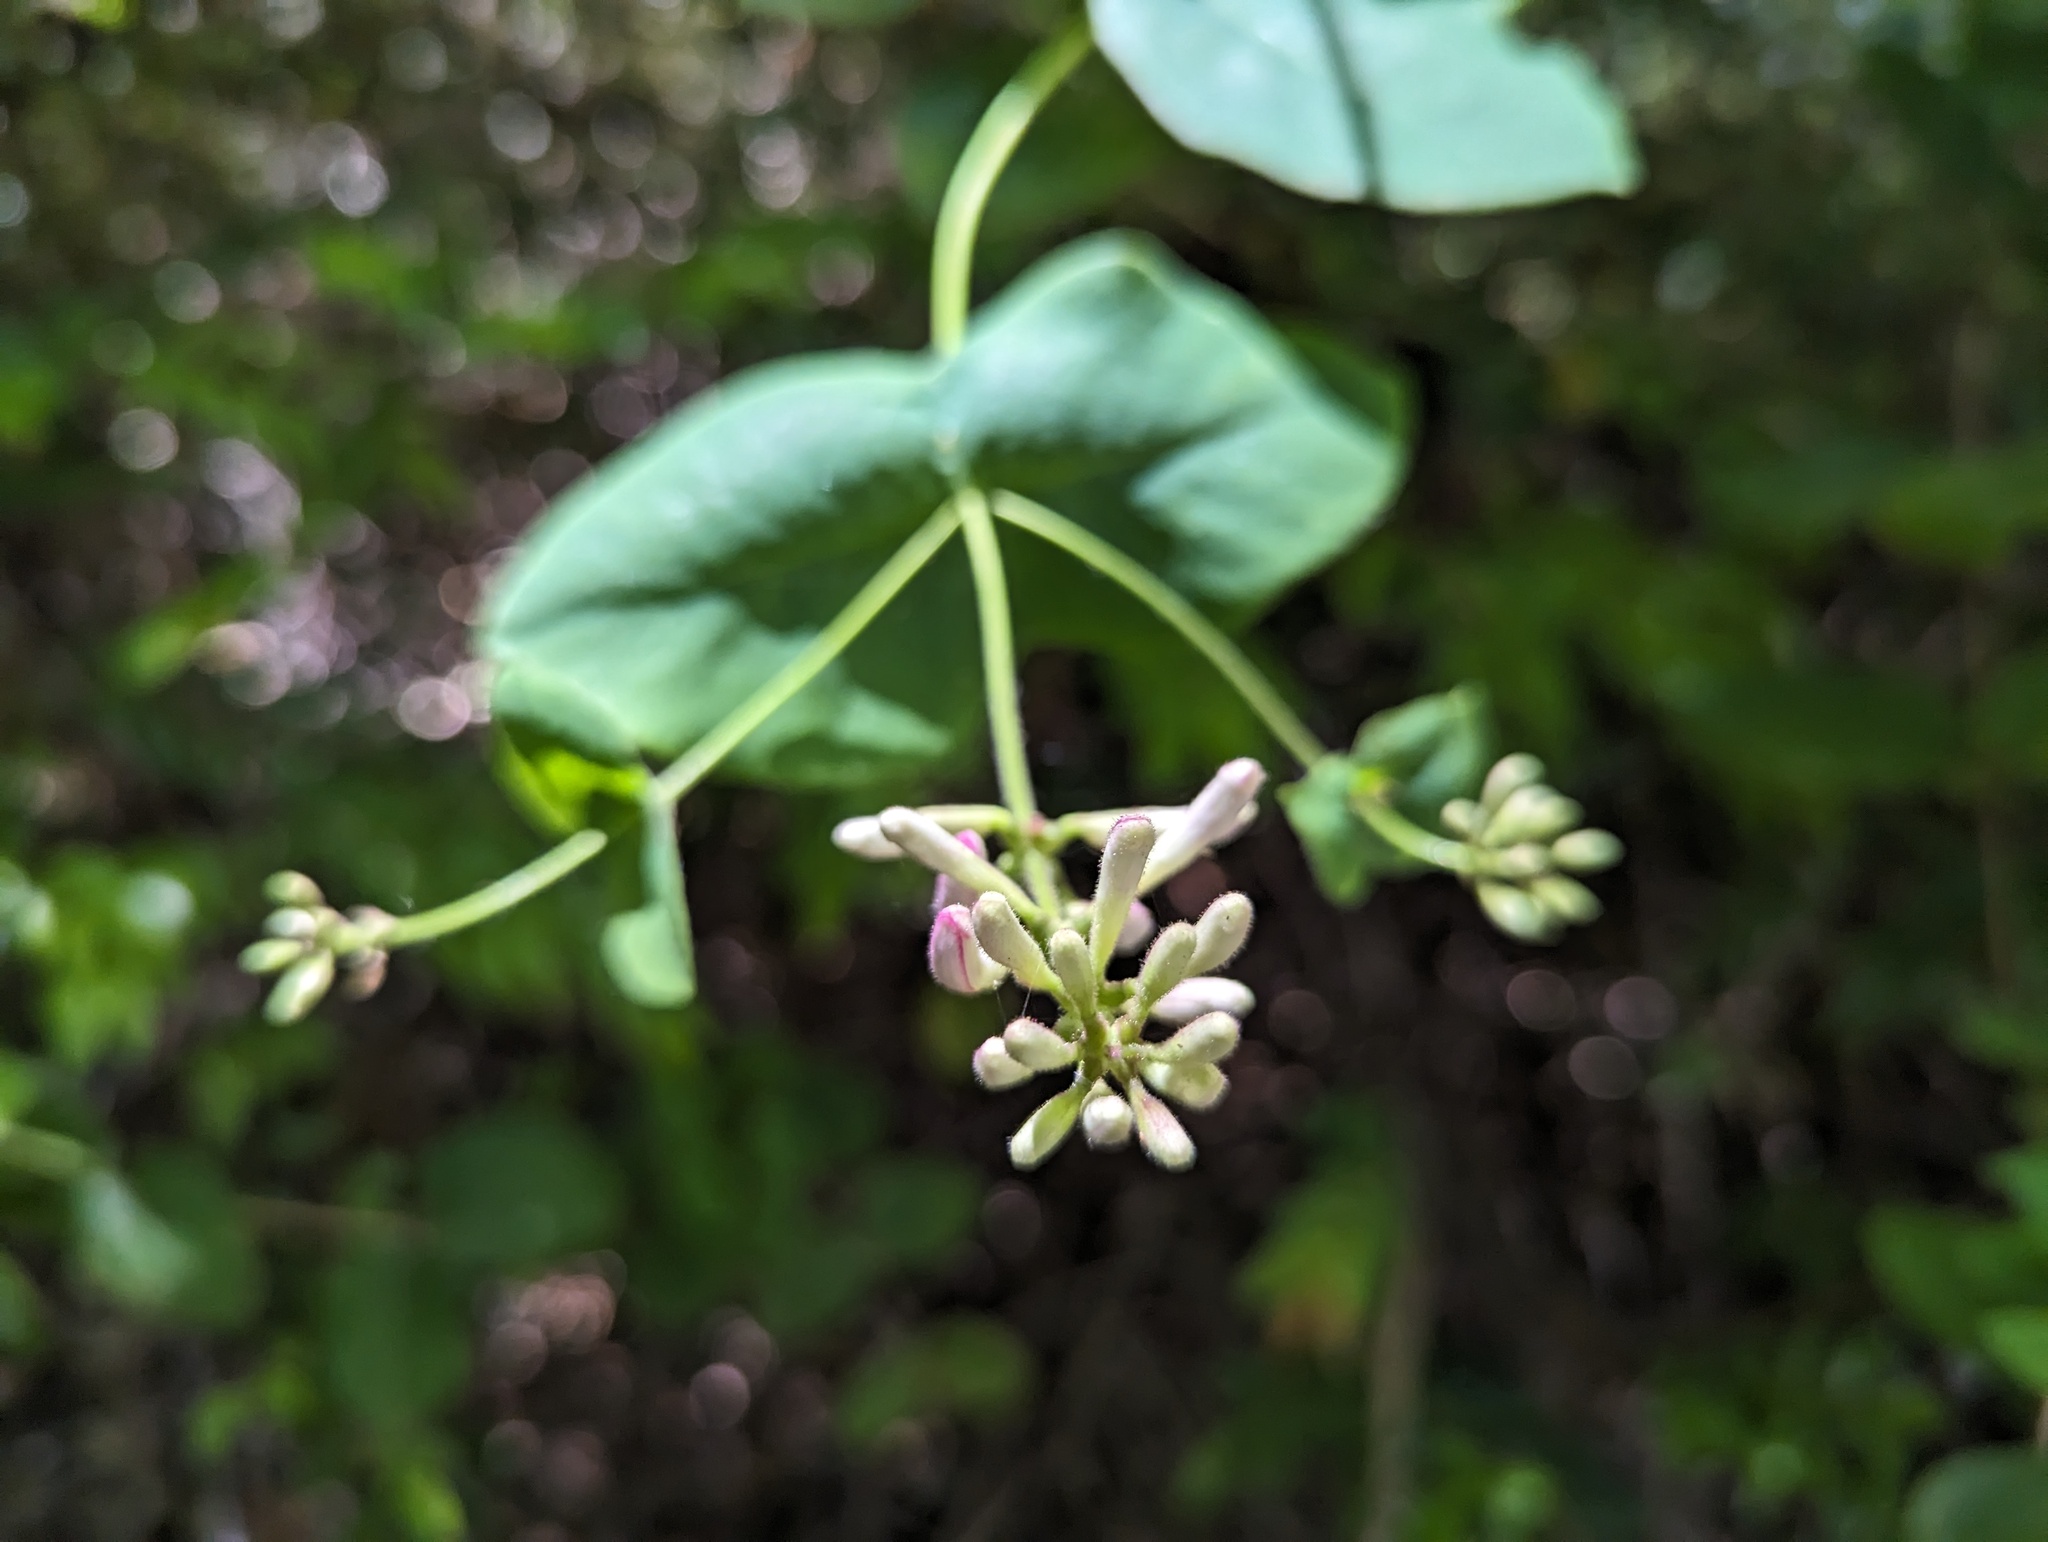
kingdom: Plantae
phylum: Tracheophyta
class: Magnoliopsida
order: Dipsacales
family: Caprifoliaceae
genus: Lonicera
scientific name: Lonicera hispidula
